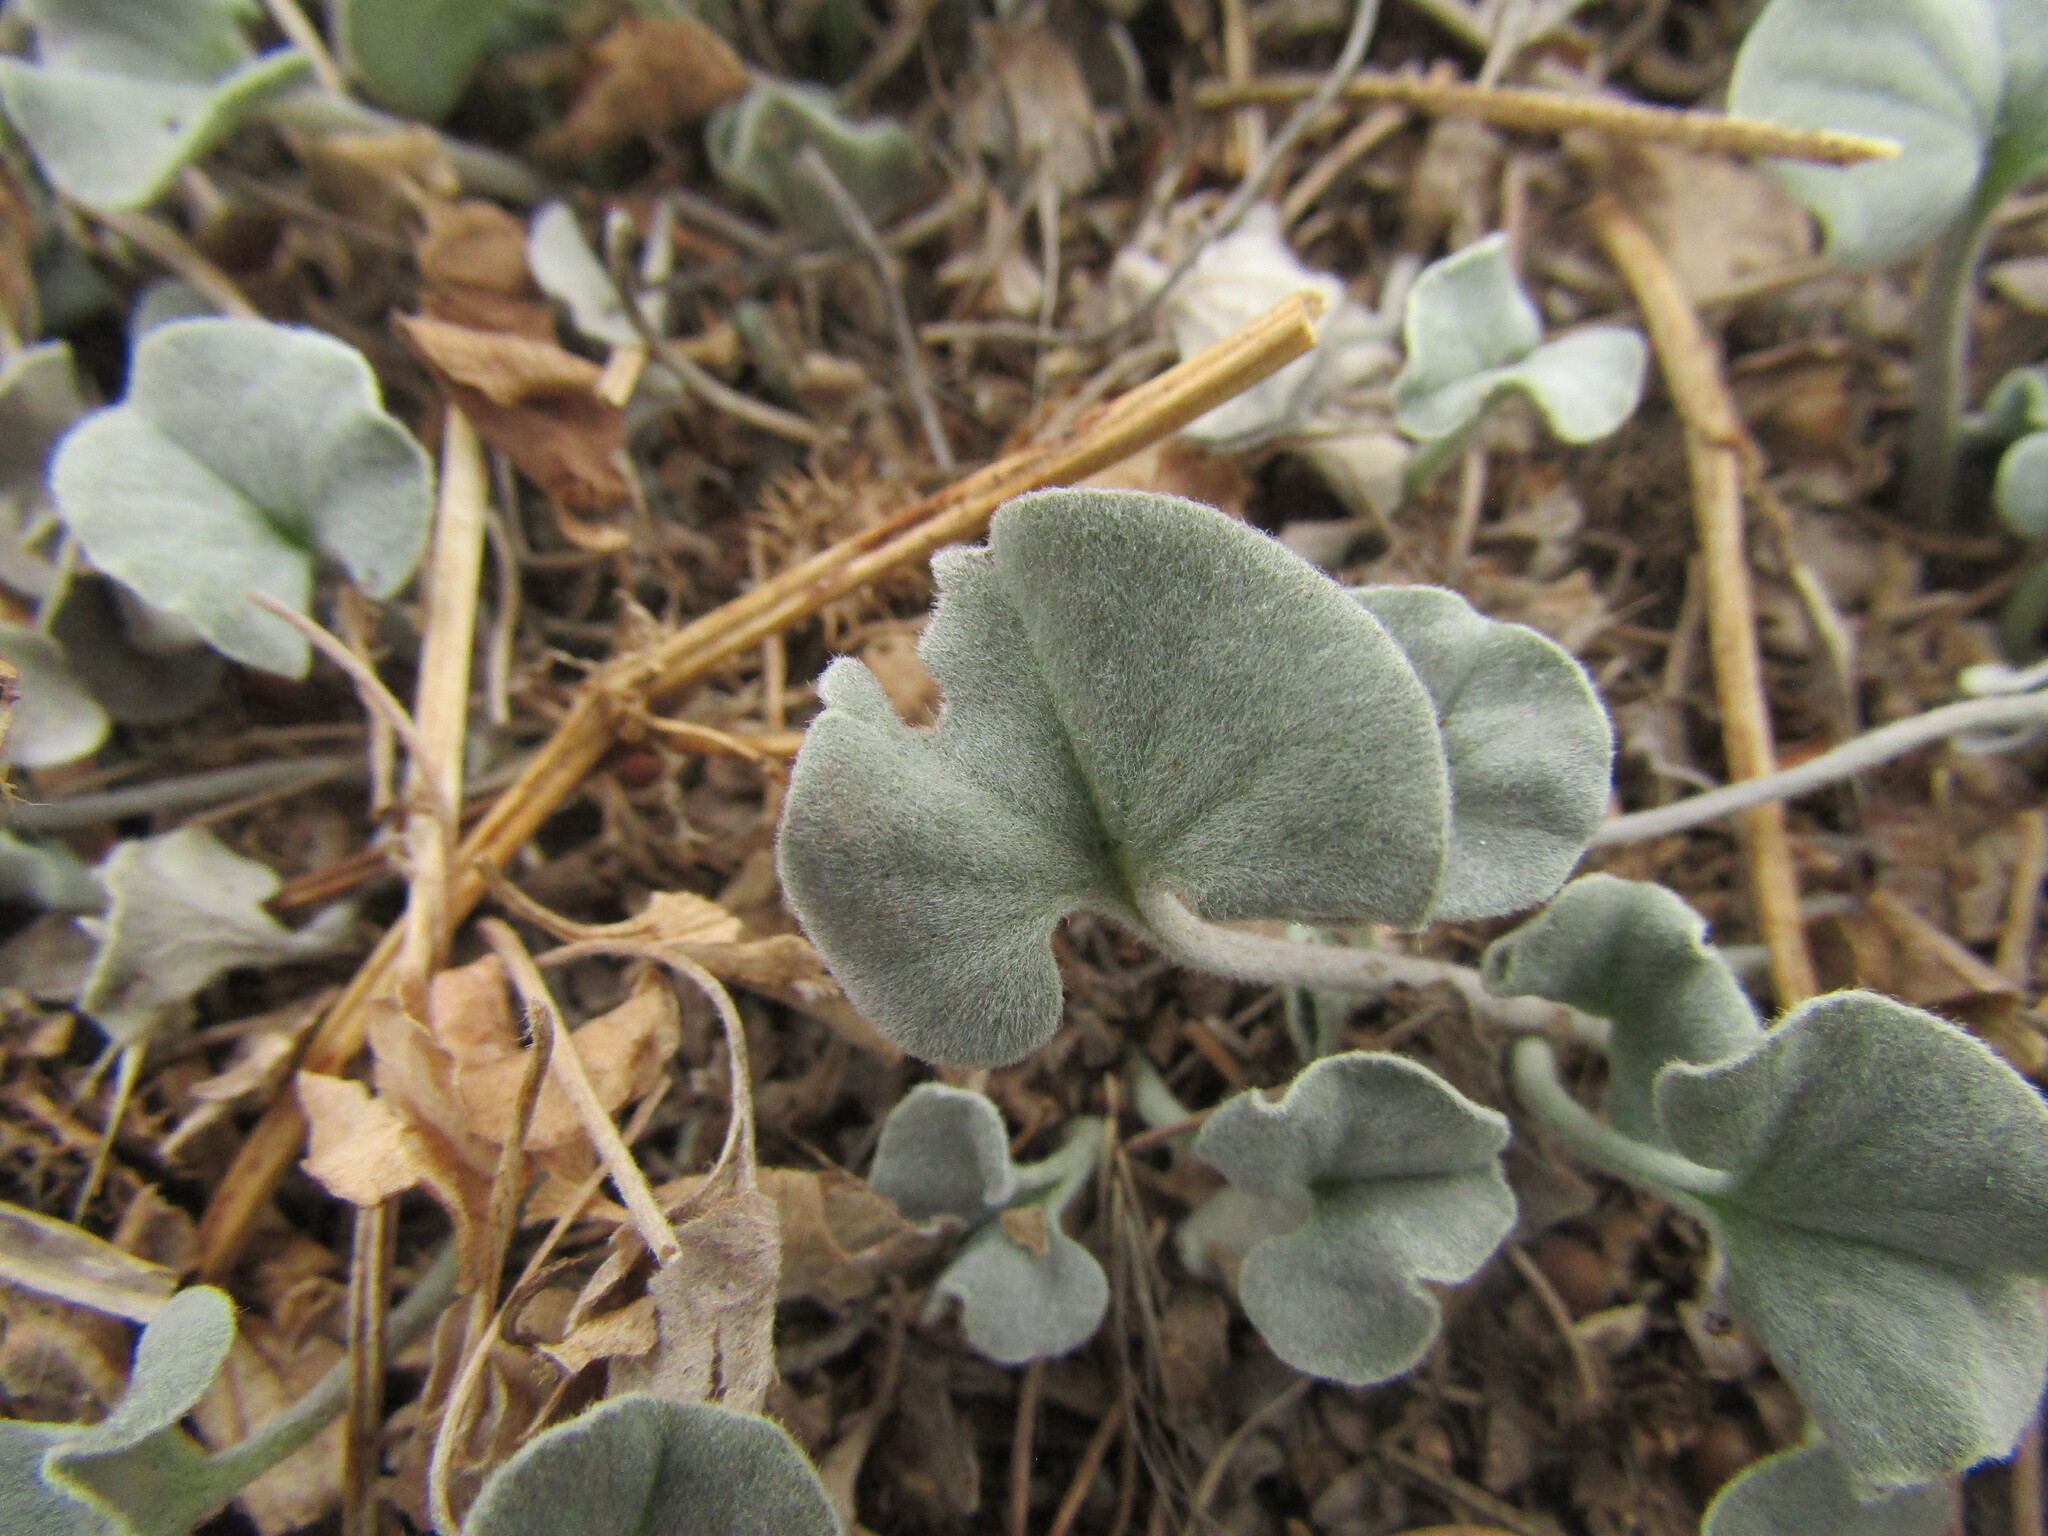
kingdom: Plantae
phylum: Tracheophyta
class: Magnoliopsida
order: Solanales
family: Convolvulaceae
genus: Dichondra
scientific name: Dichondra argentea
